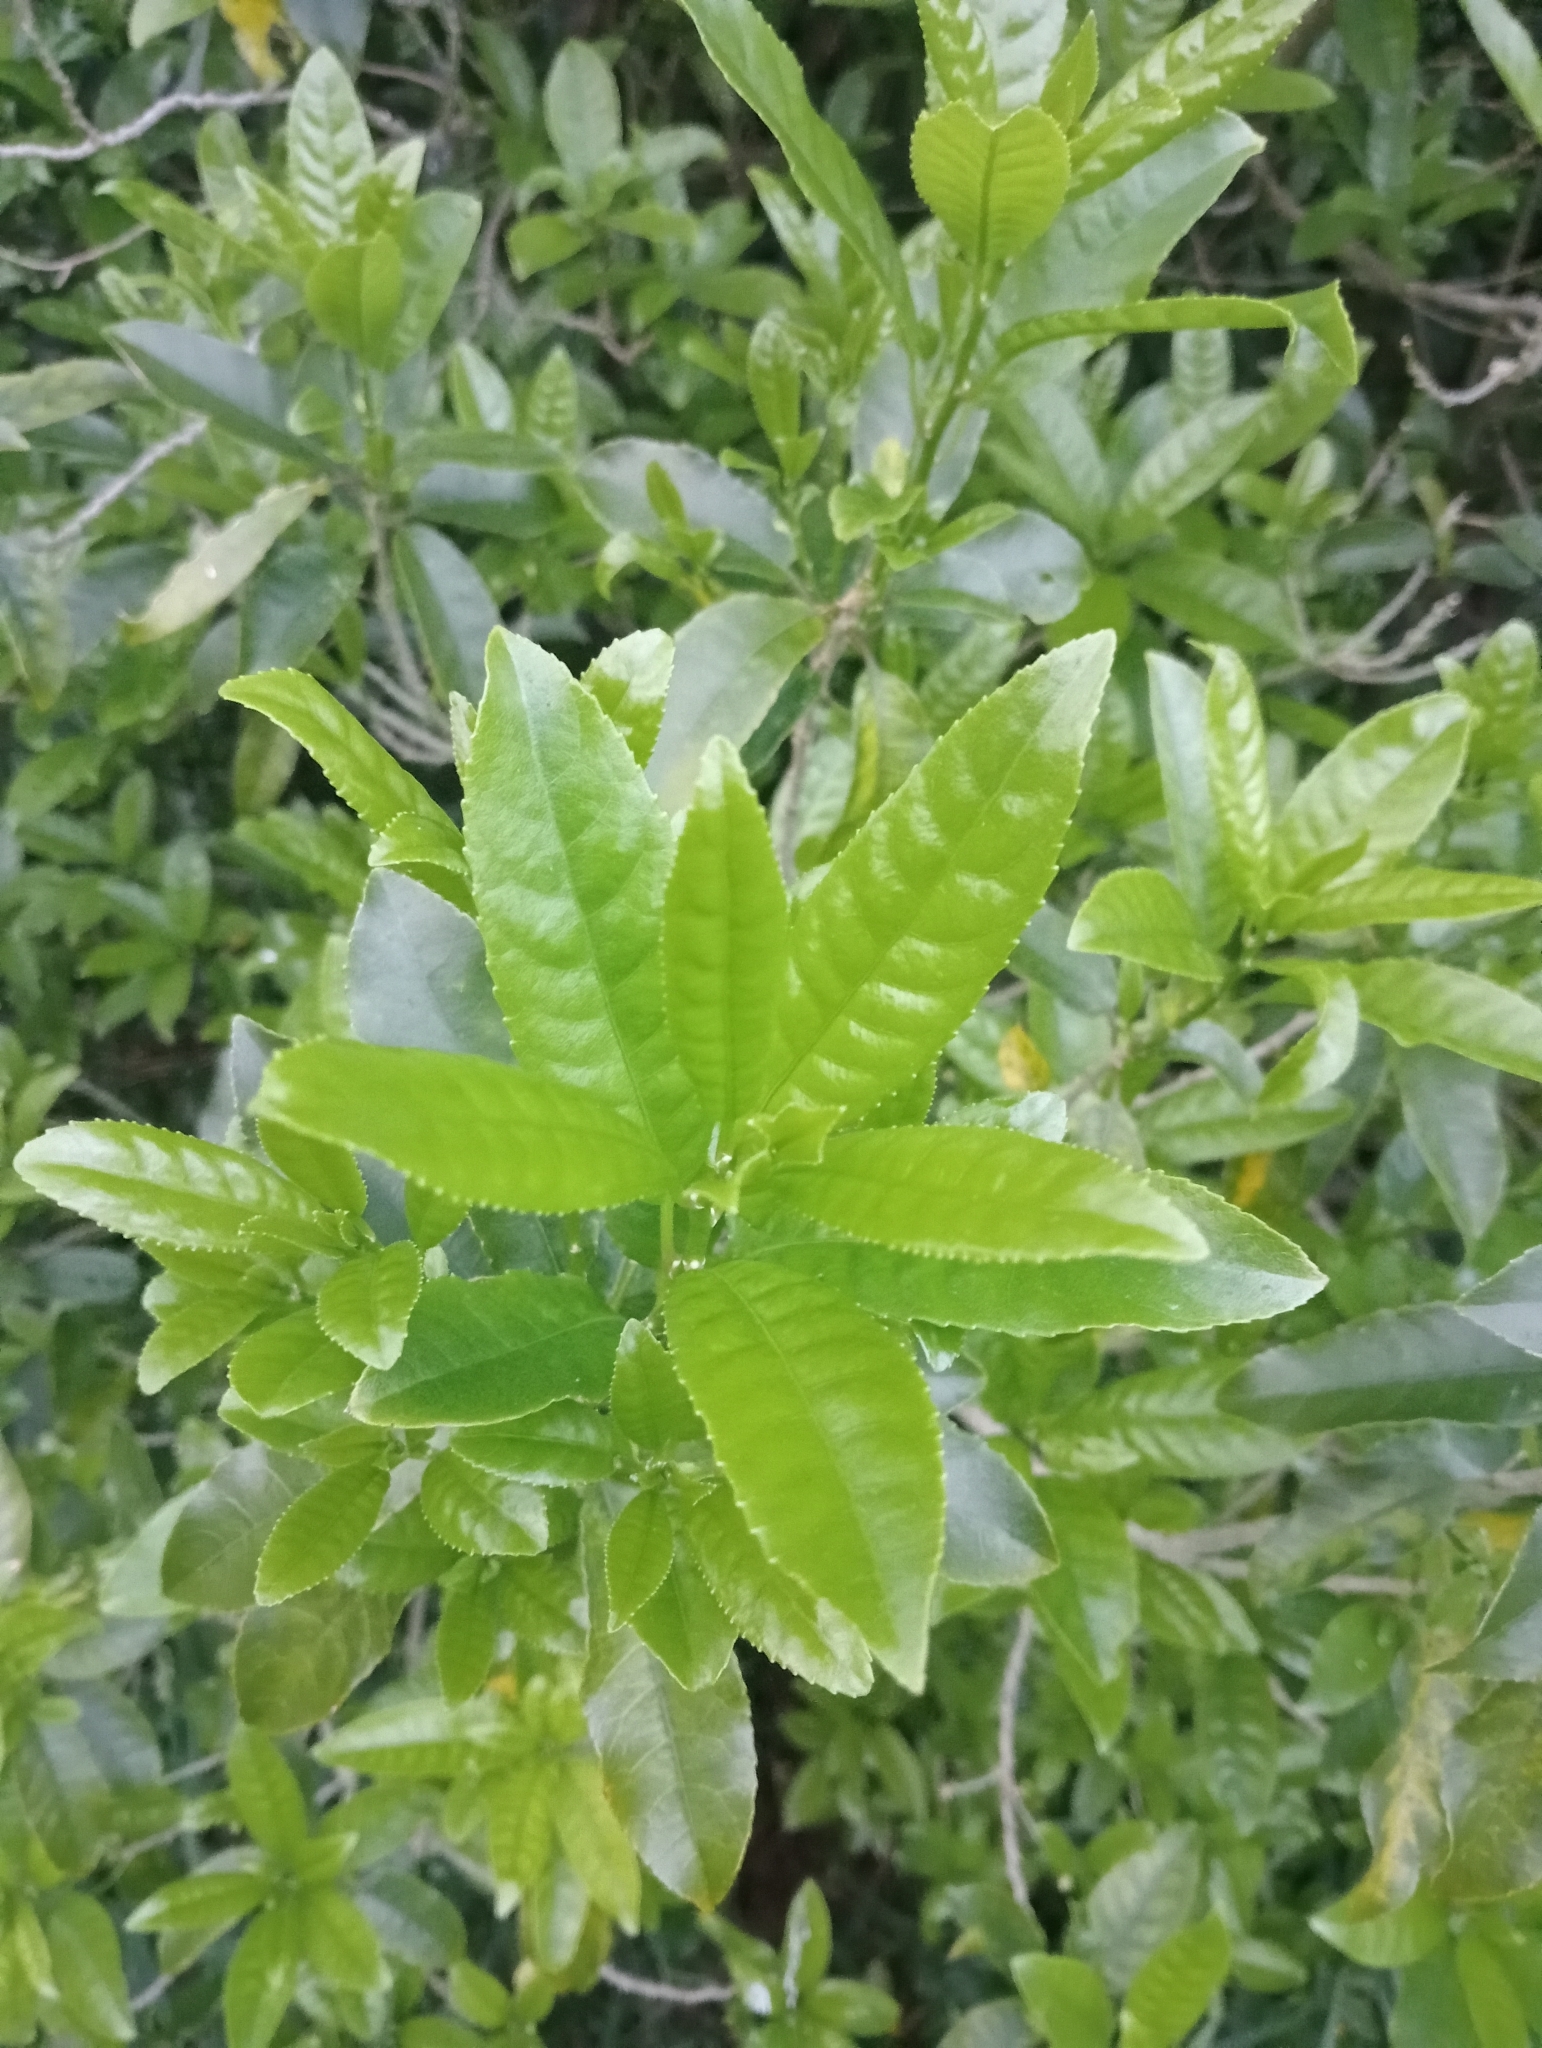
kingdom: Plantae
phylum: Tracheophyta
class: Magnoliopsida
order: Malpighiales
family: Violaceae
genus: Melicytus
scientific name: Melicytus ramiflorus
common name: Mahoe
